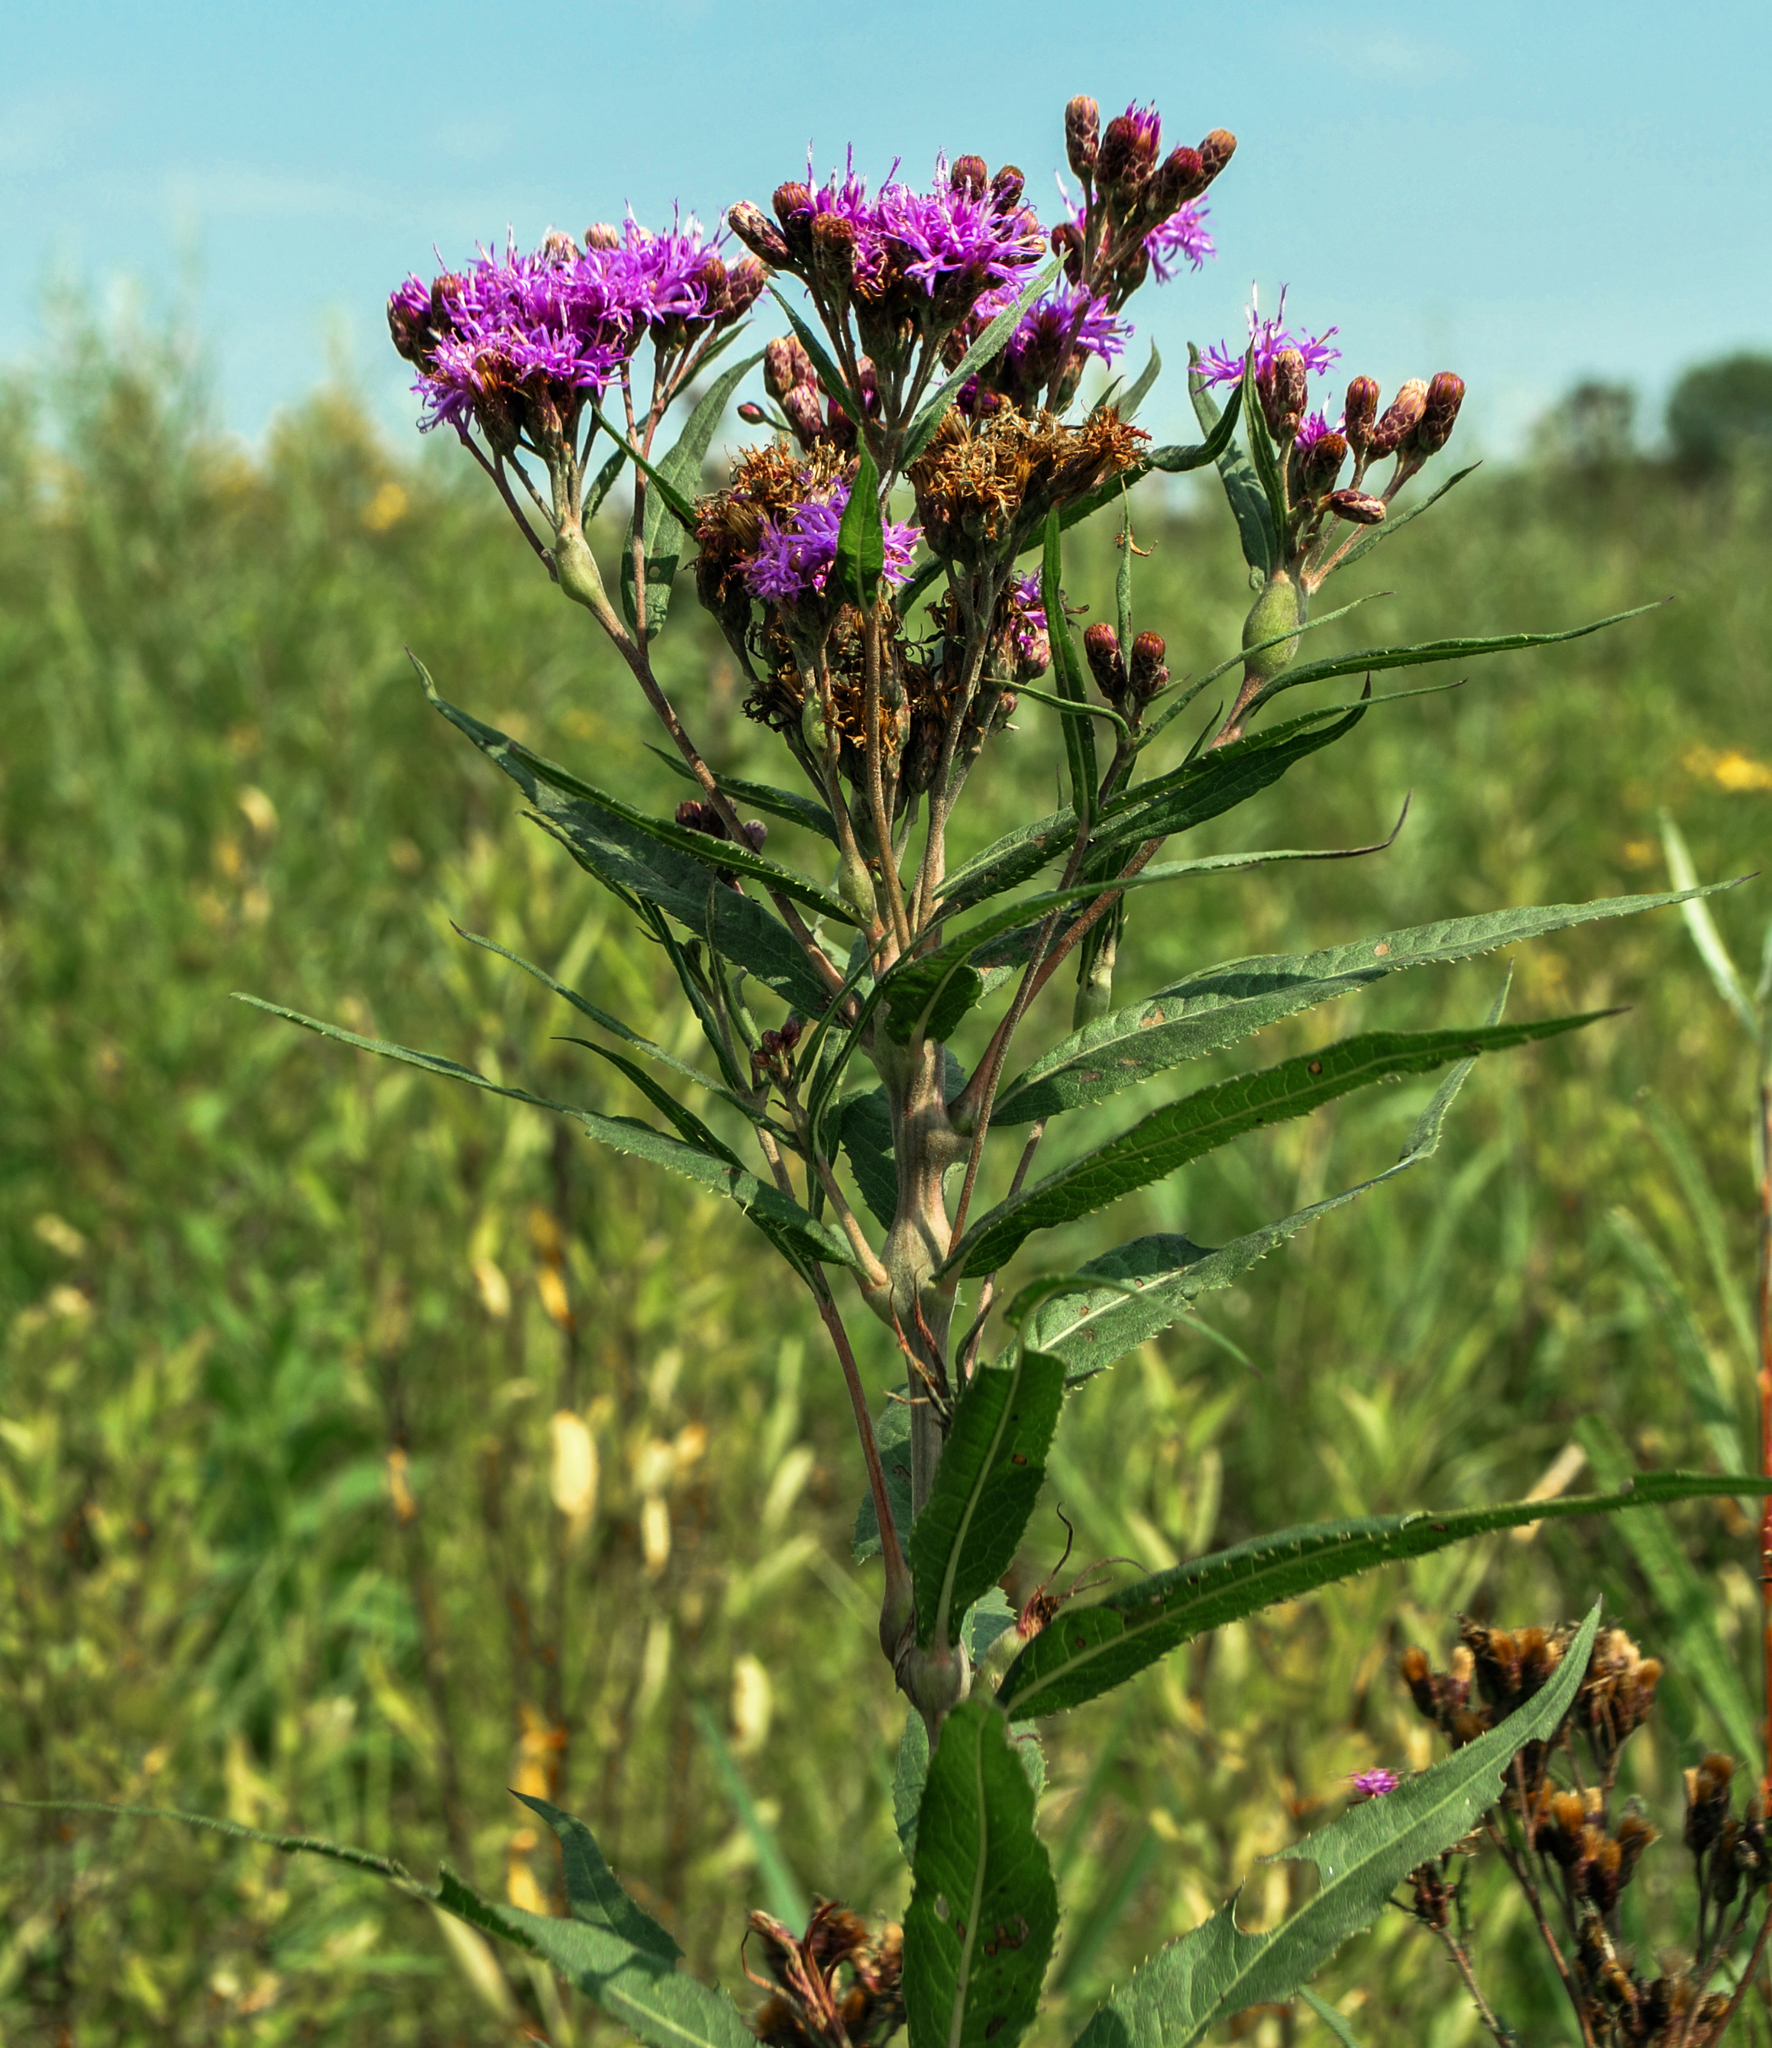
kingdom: Plantae
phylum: Tracheophyta
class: Magnoliopsida
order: Asterales
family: Asteraceae
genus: Vernonia
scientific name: Vernonia fasciculata
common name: Fascicled ironweed
